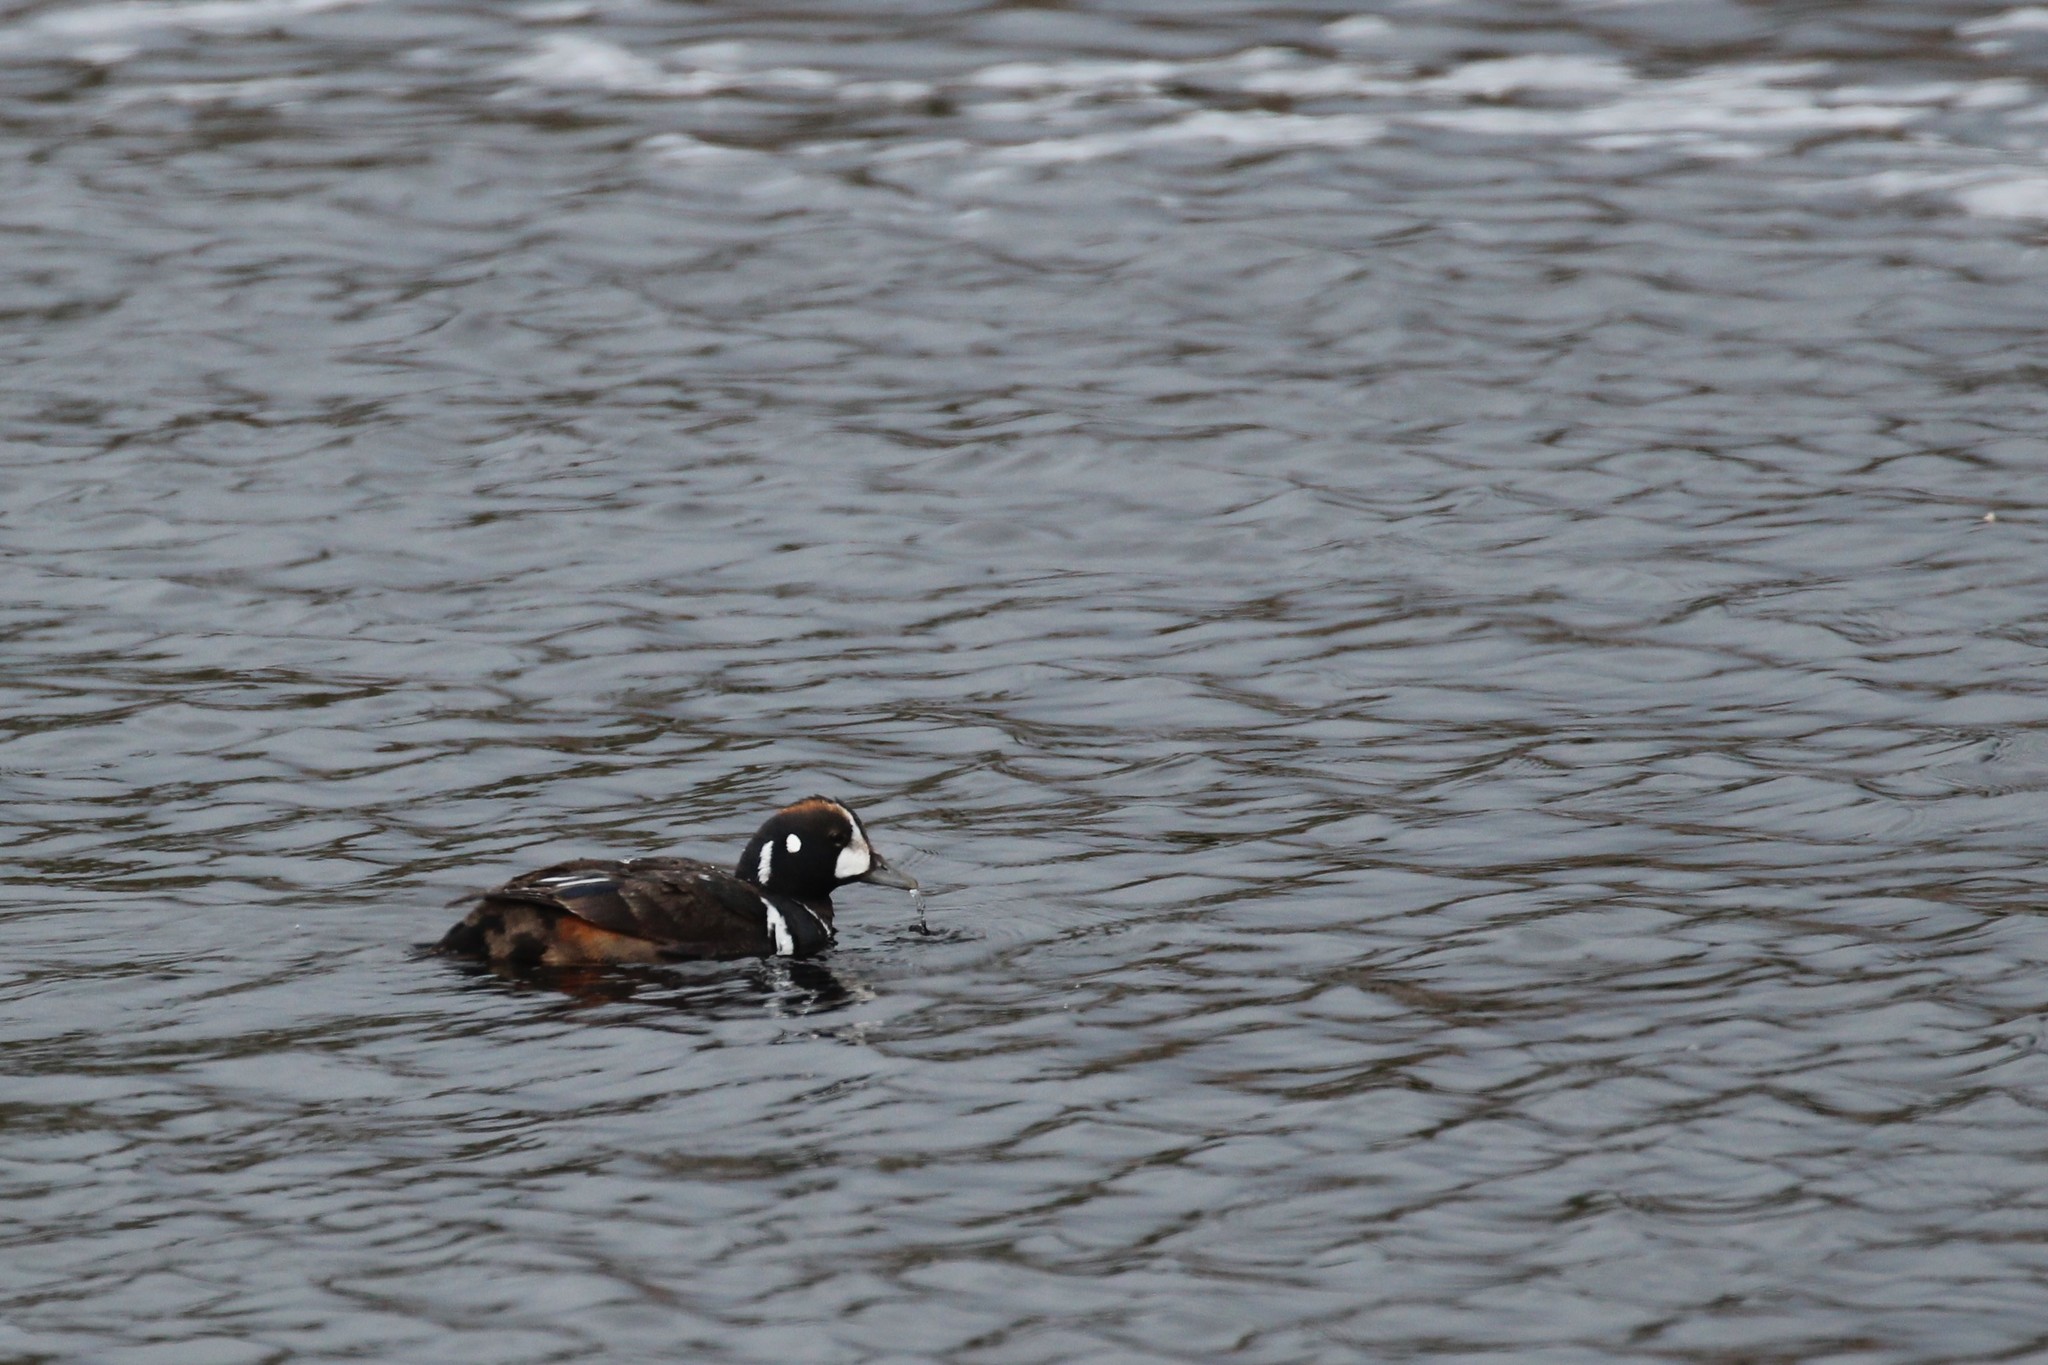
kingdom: Animalia
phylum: Chordata
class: Aves
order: Anseriformes
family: Anatidae
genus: Histrionicus
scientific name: Histrionicus histrionicus
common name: Harlequin duck
